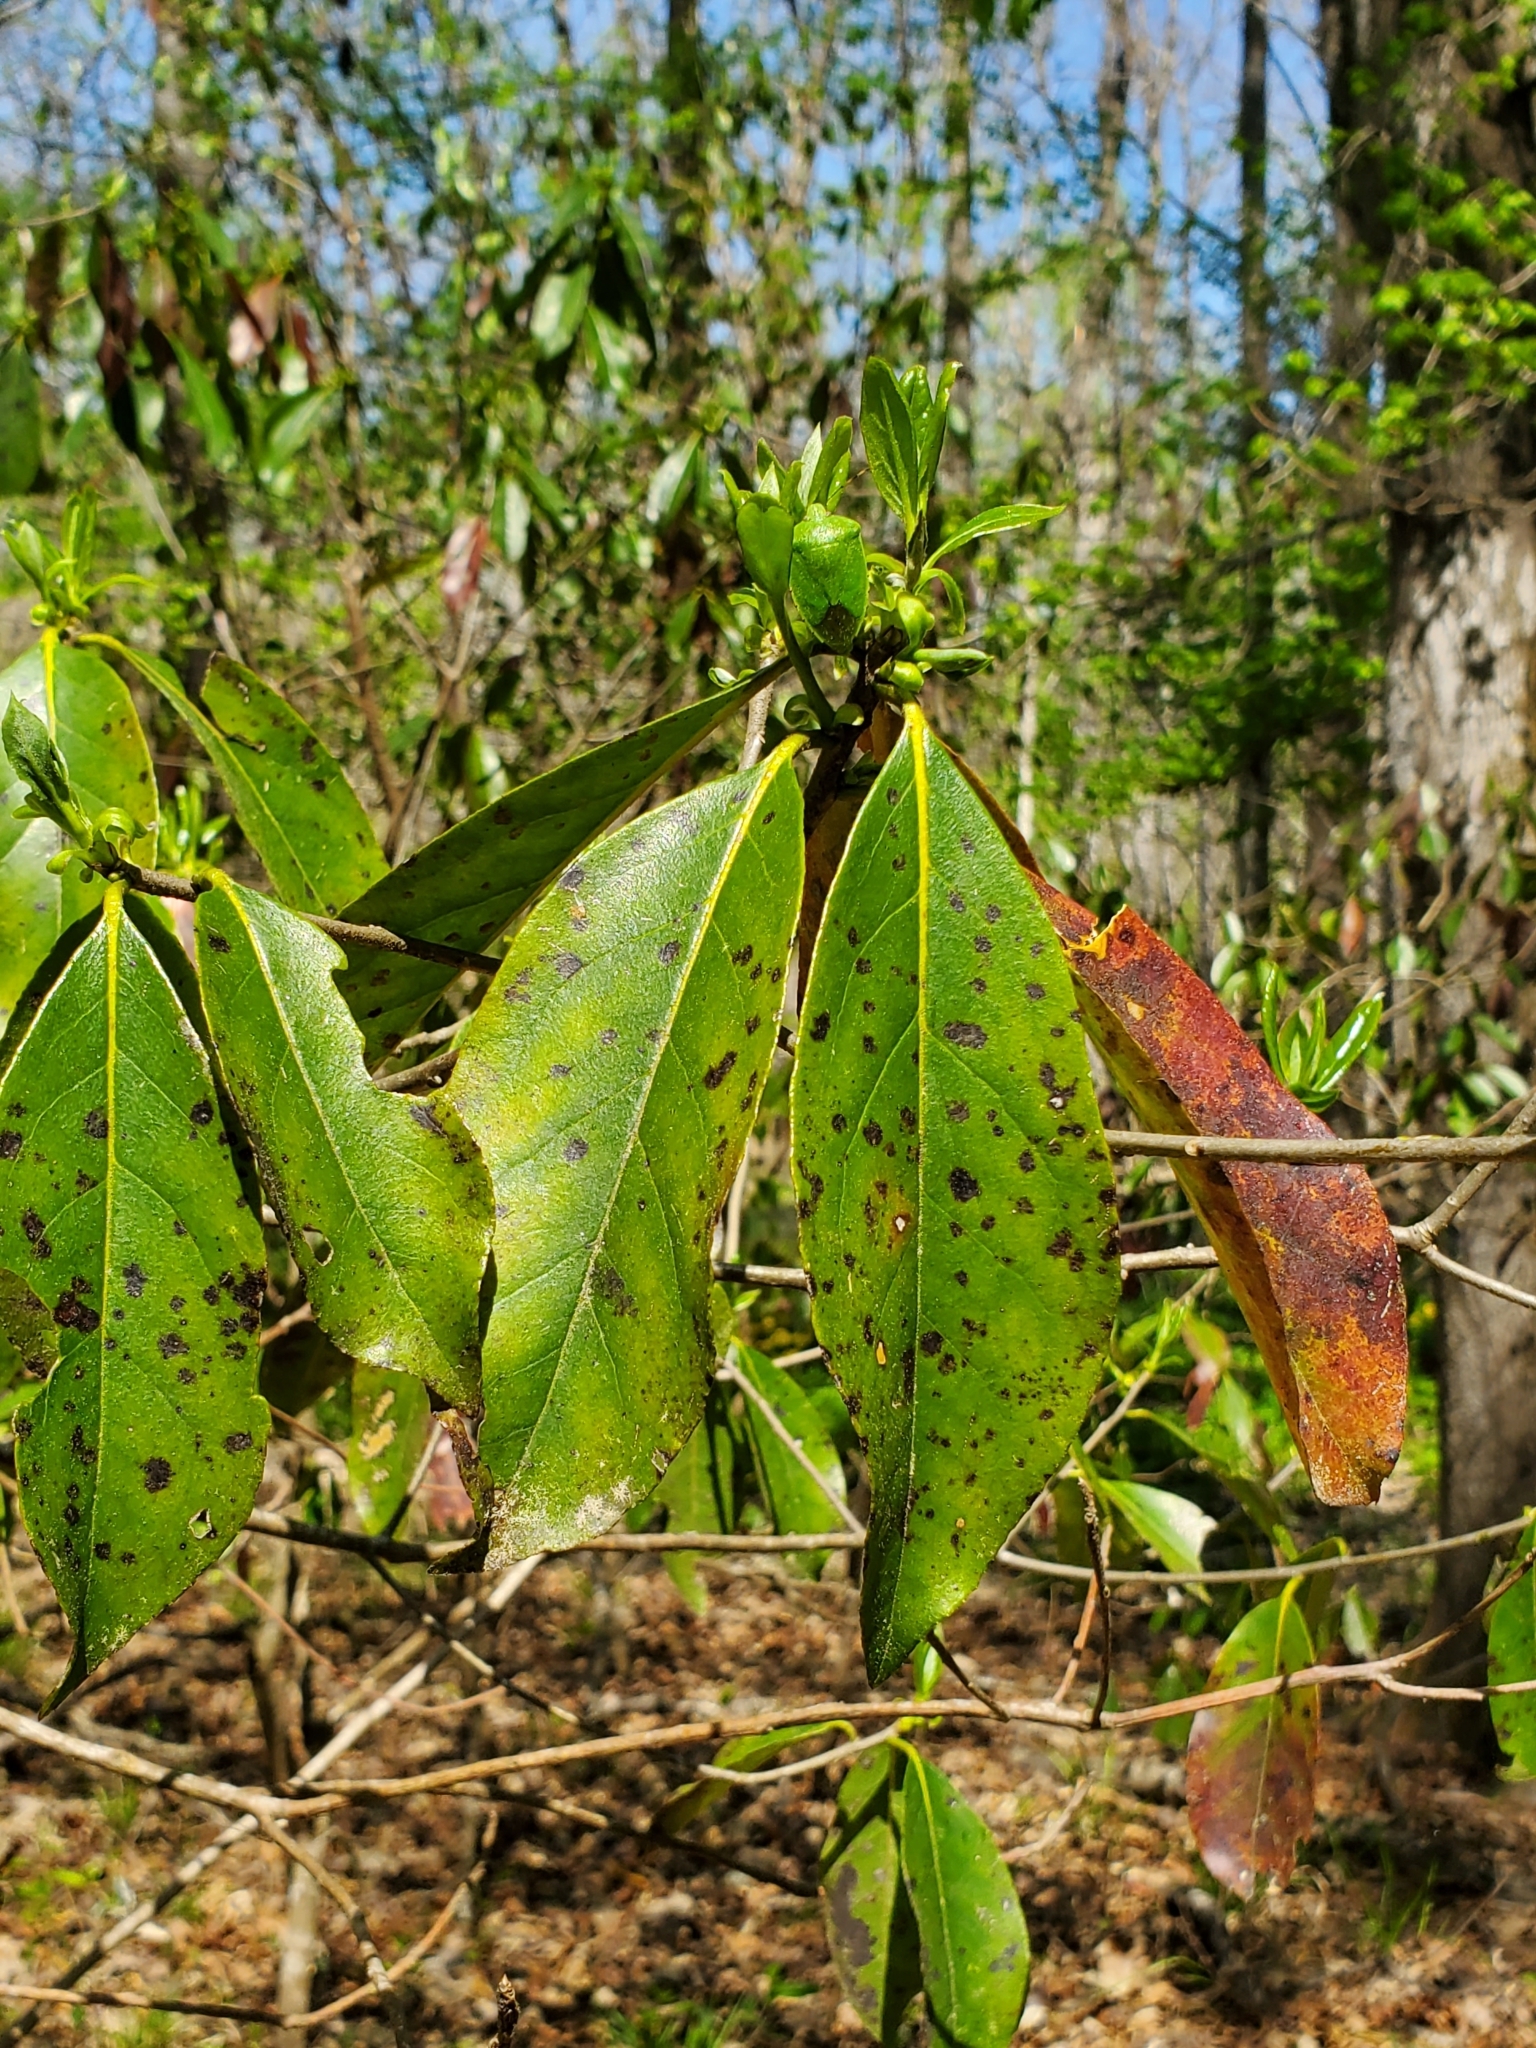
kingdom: Plantae
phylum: Tracheophyta
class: Magnoliopsida
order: Ericales
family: Symplocaceae
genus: Symplocos
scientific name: Symplocos tinctoria
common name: Horse-sugar
